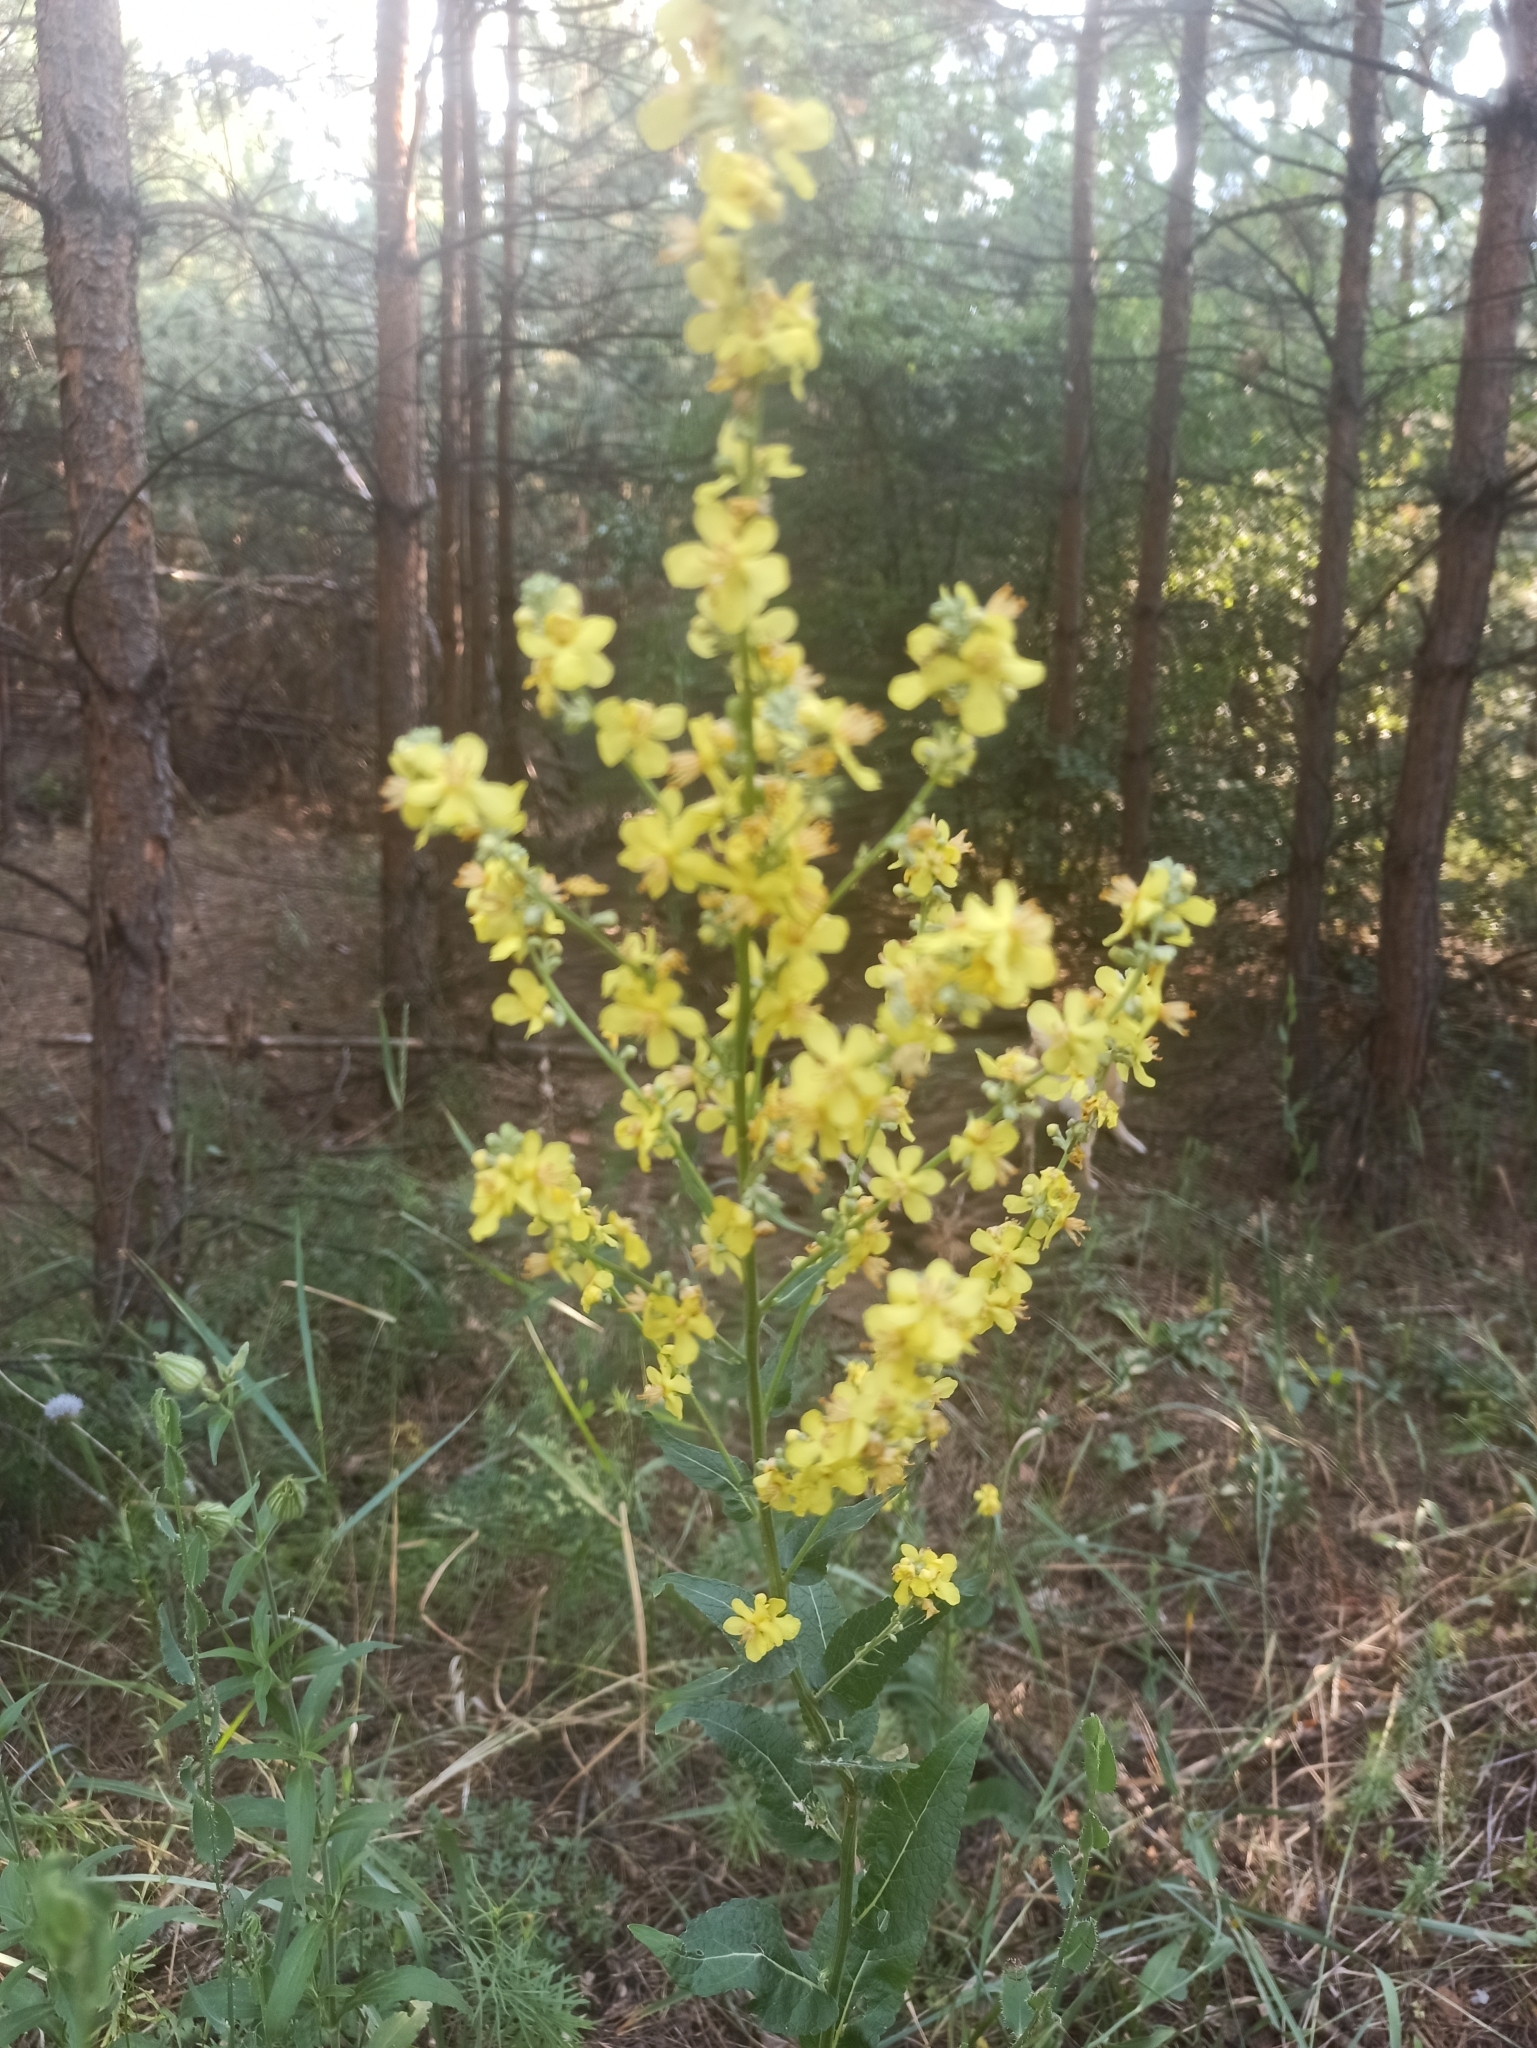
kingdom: Plantae
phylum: Tracheophyta
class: Magnoliopsida
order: Lamiales
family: Scrophulariaceae
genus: Verbascum
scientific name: Verbascum lychnitis
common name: White mullein
